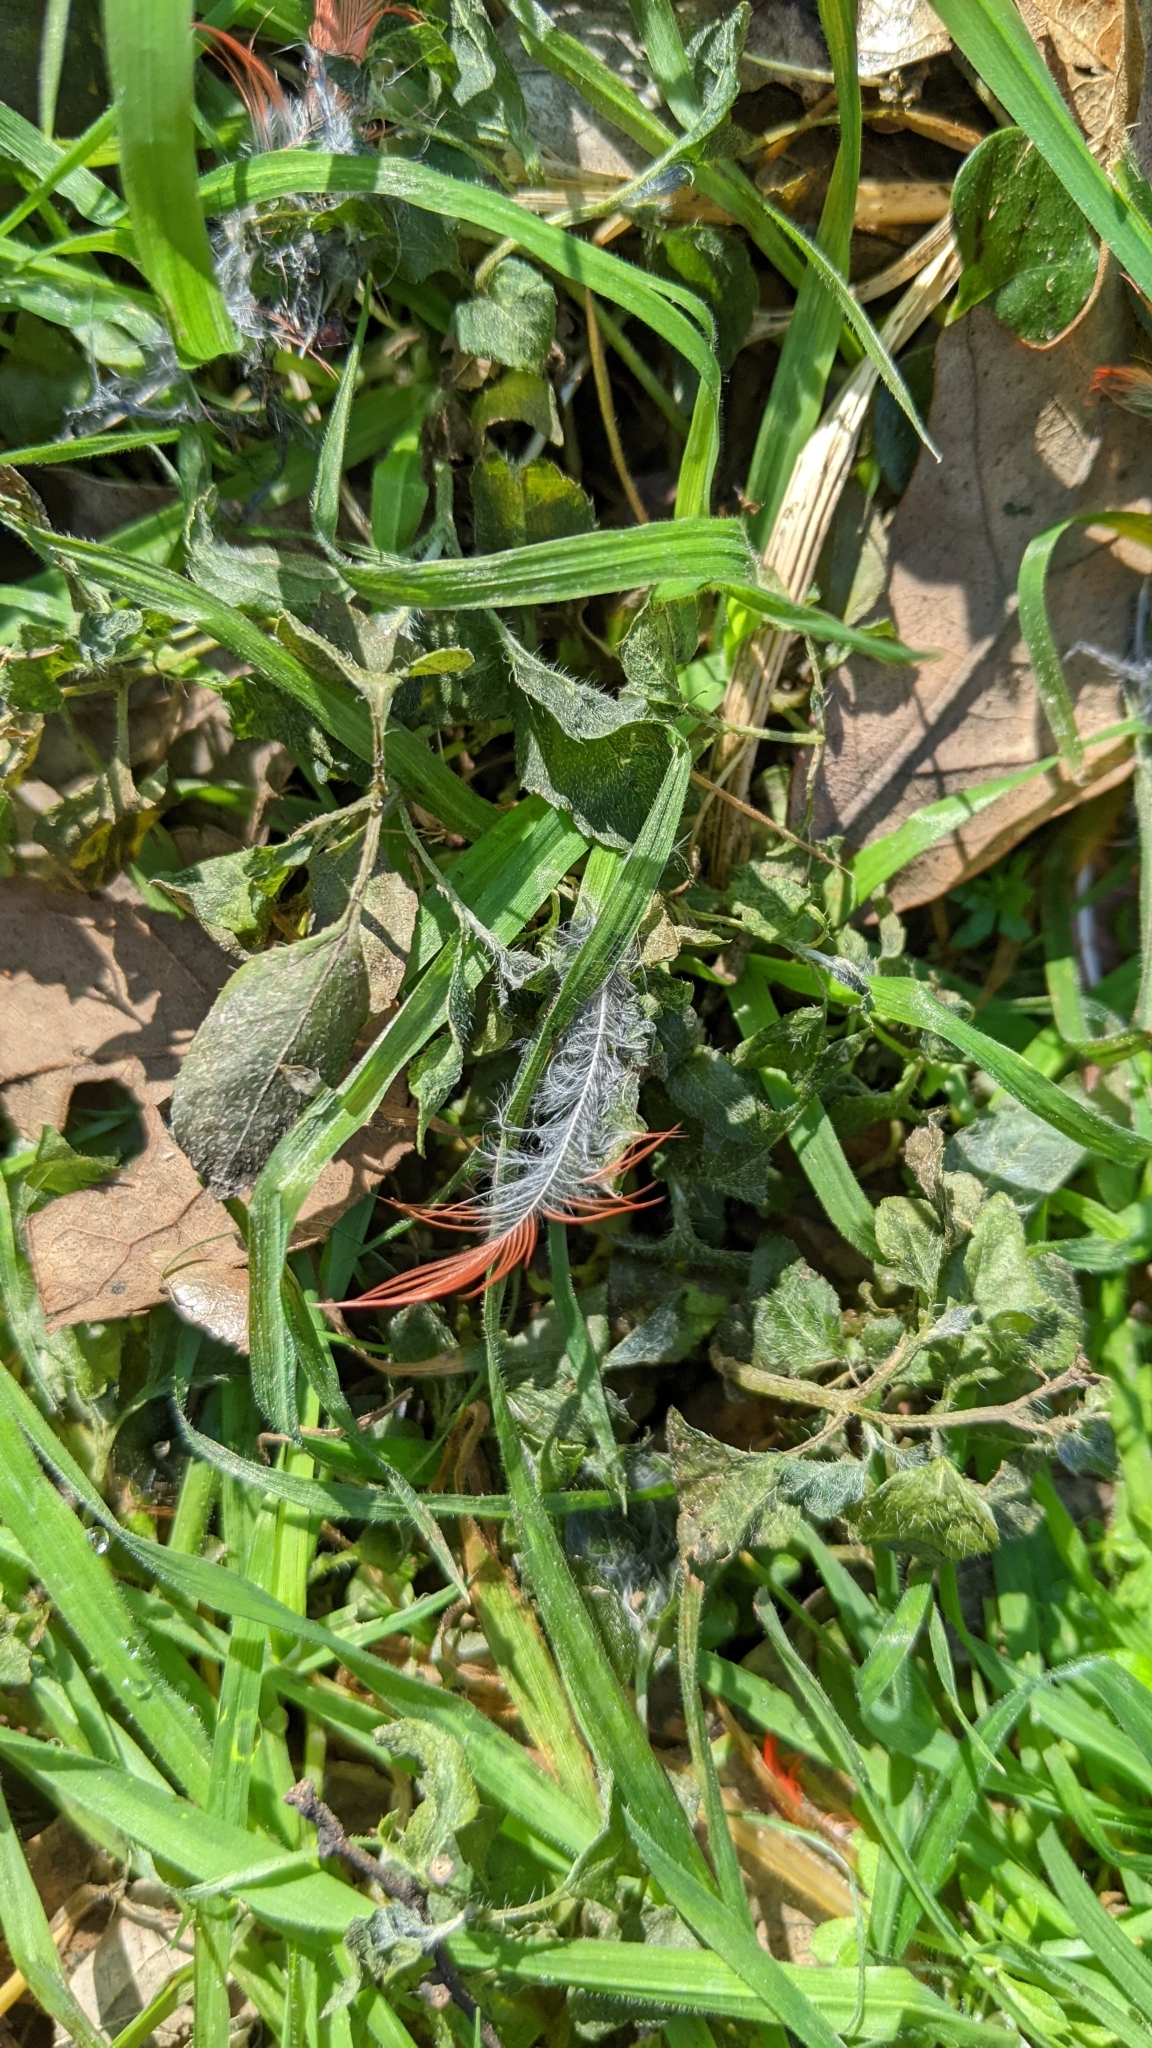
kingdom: Animalia
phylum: Chordata
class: Aves
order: Passeriformes
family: Cardinalidae
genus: Cardinalis
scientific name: Cardinalis cardinalis
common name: Northern cardinal
